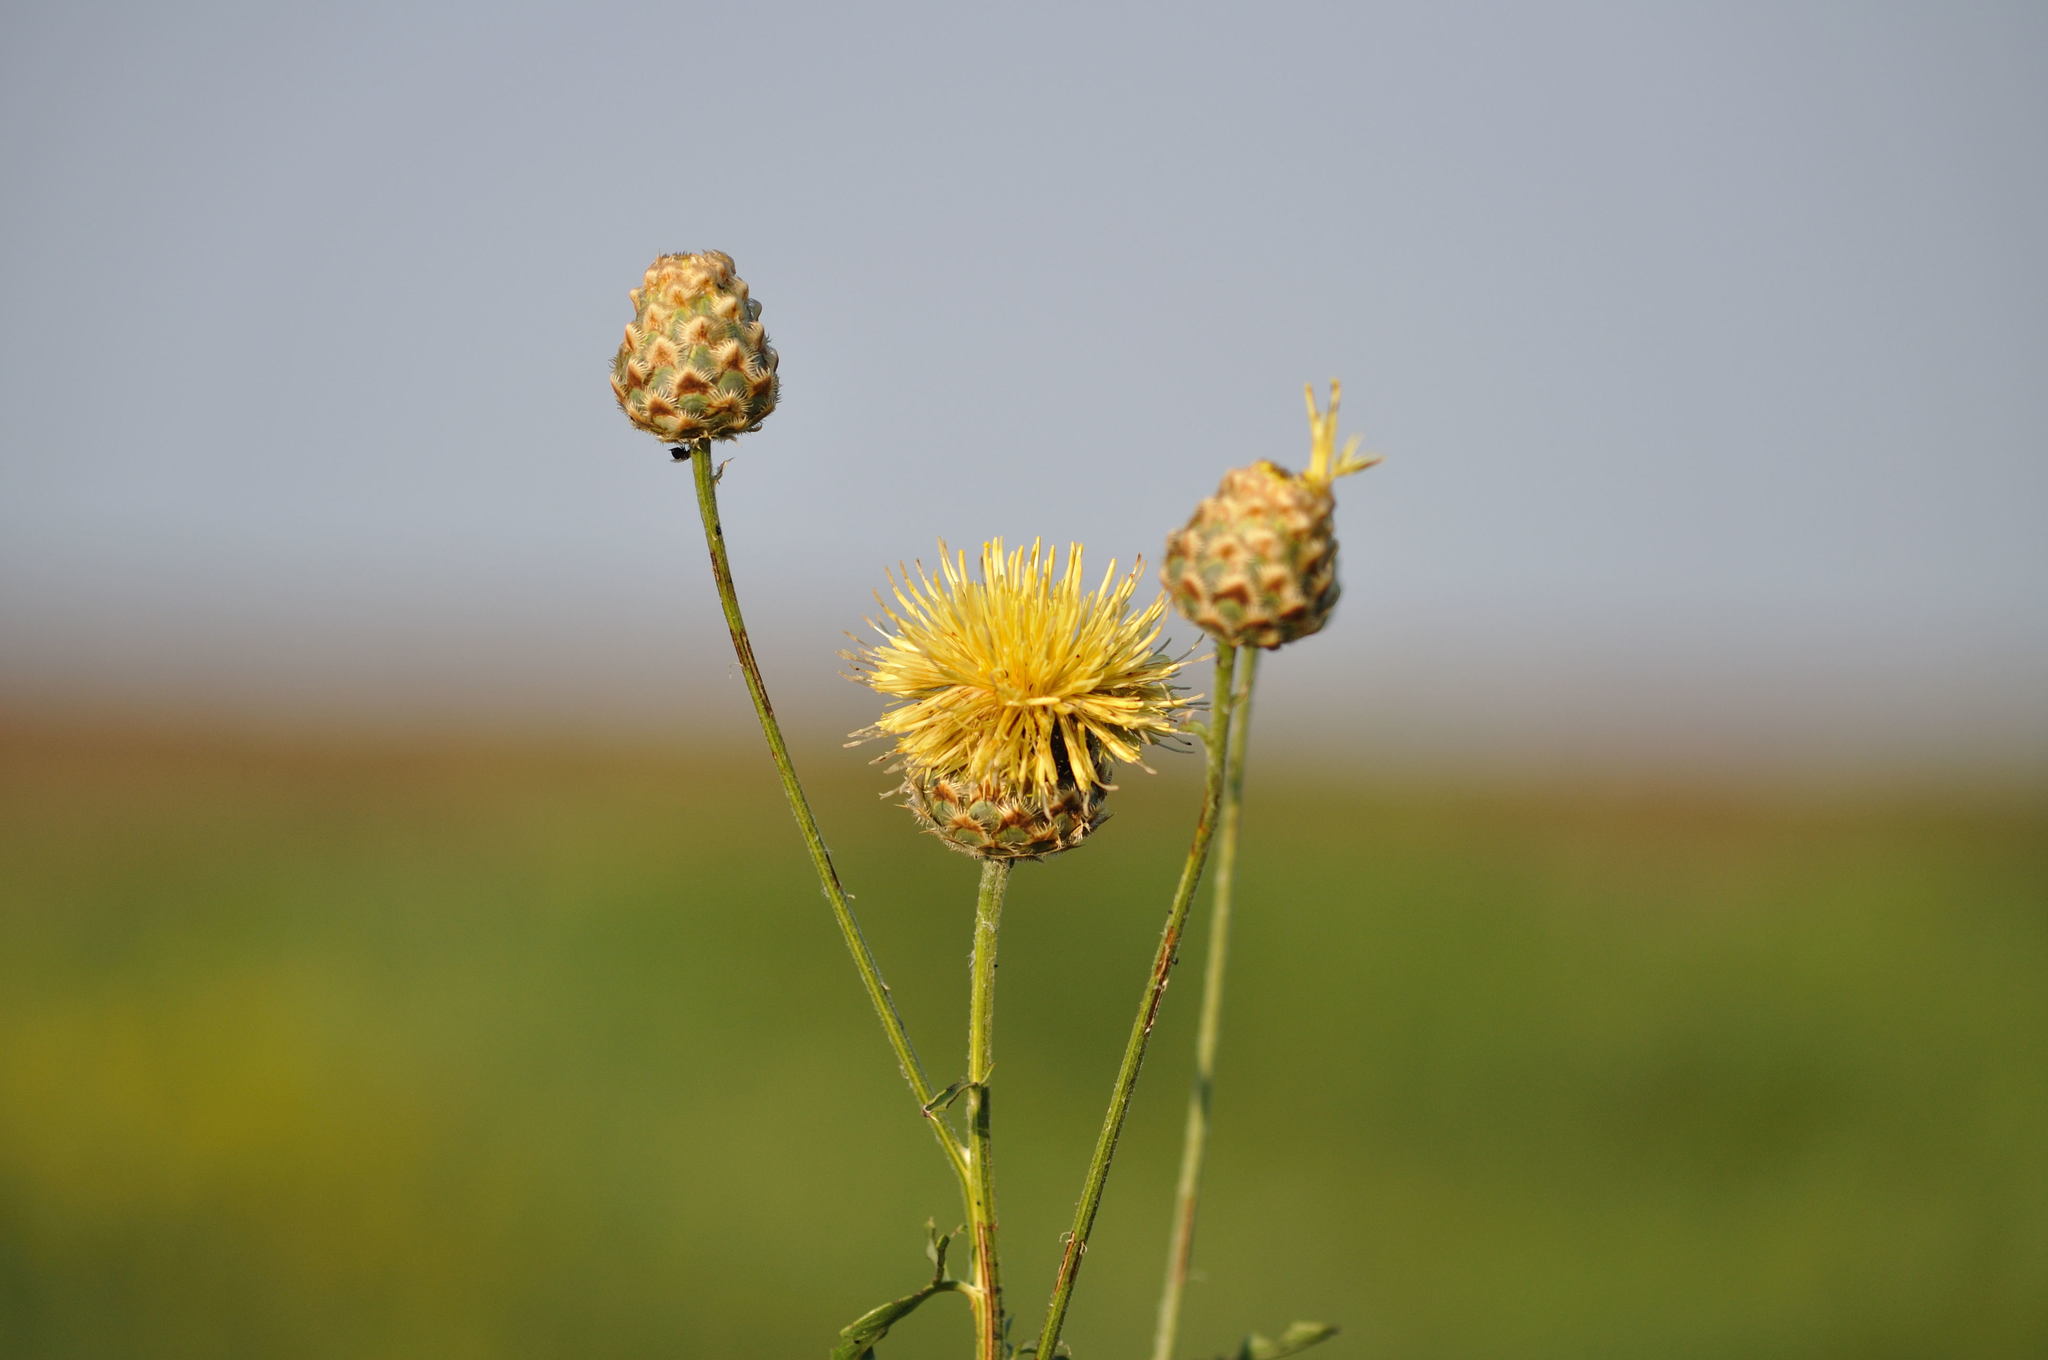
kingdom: Plantae
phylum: Tracheophyta
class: Magnoliopsida
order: Asterales
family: Asteraceae
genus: Centaurea
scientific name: Centaurea orientalis
